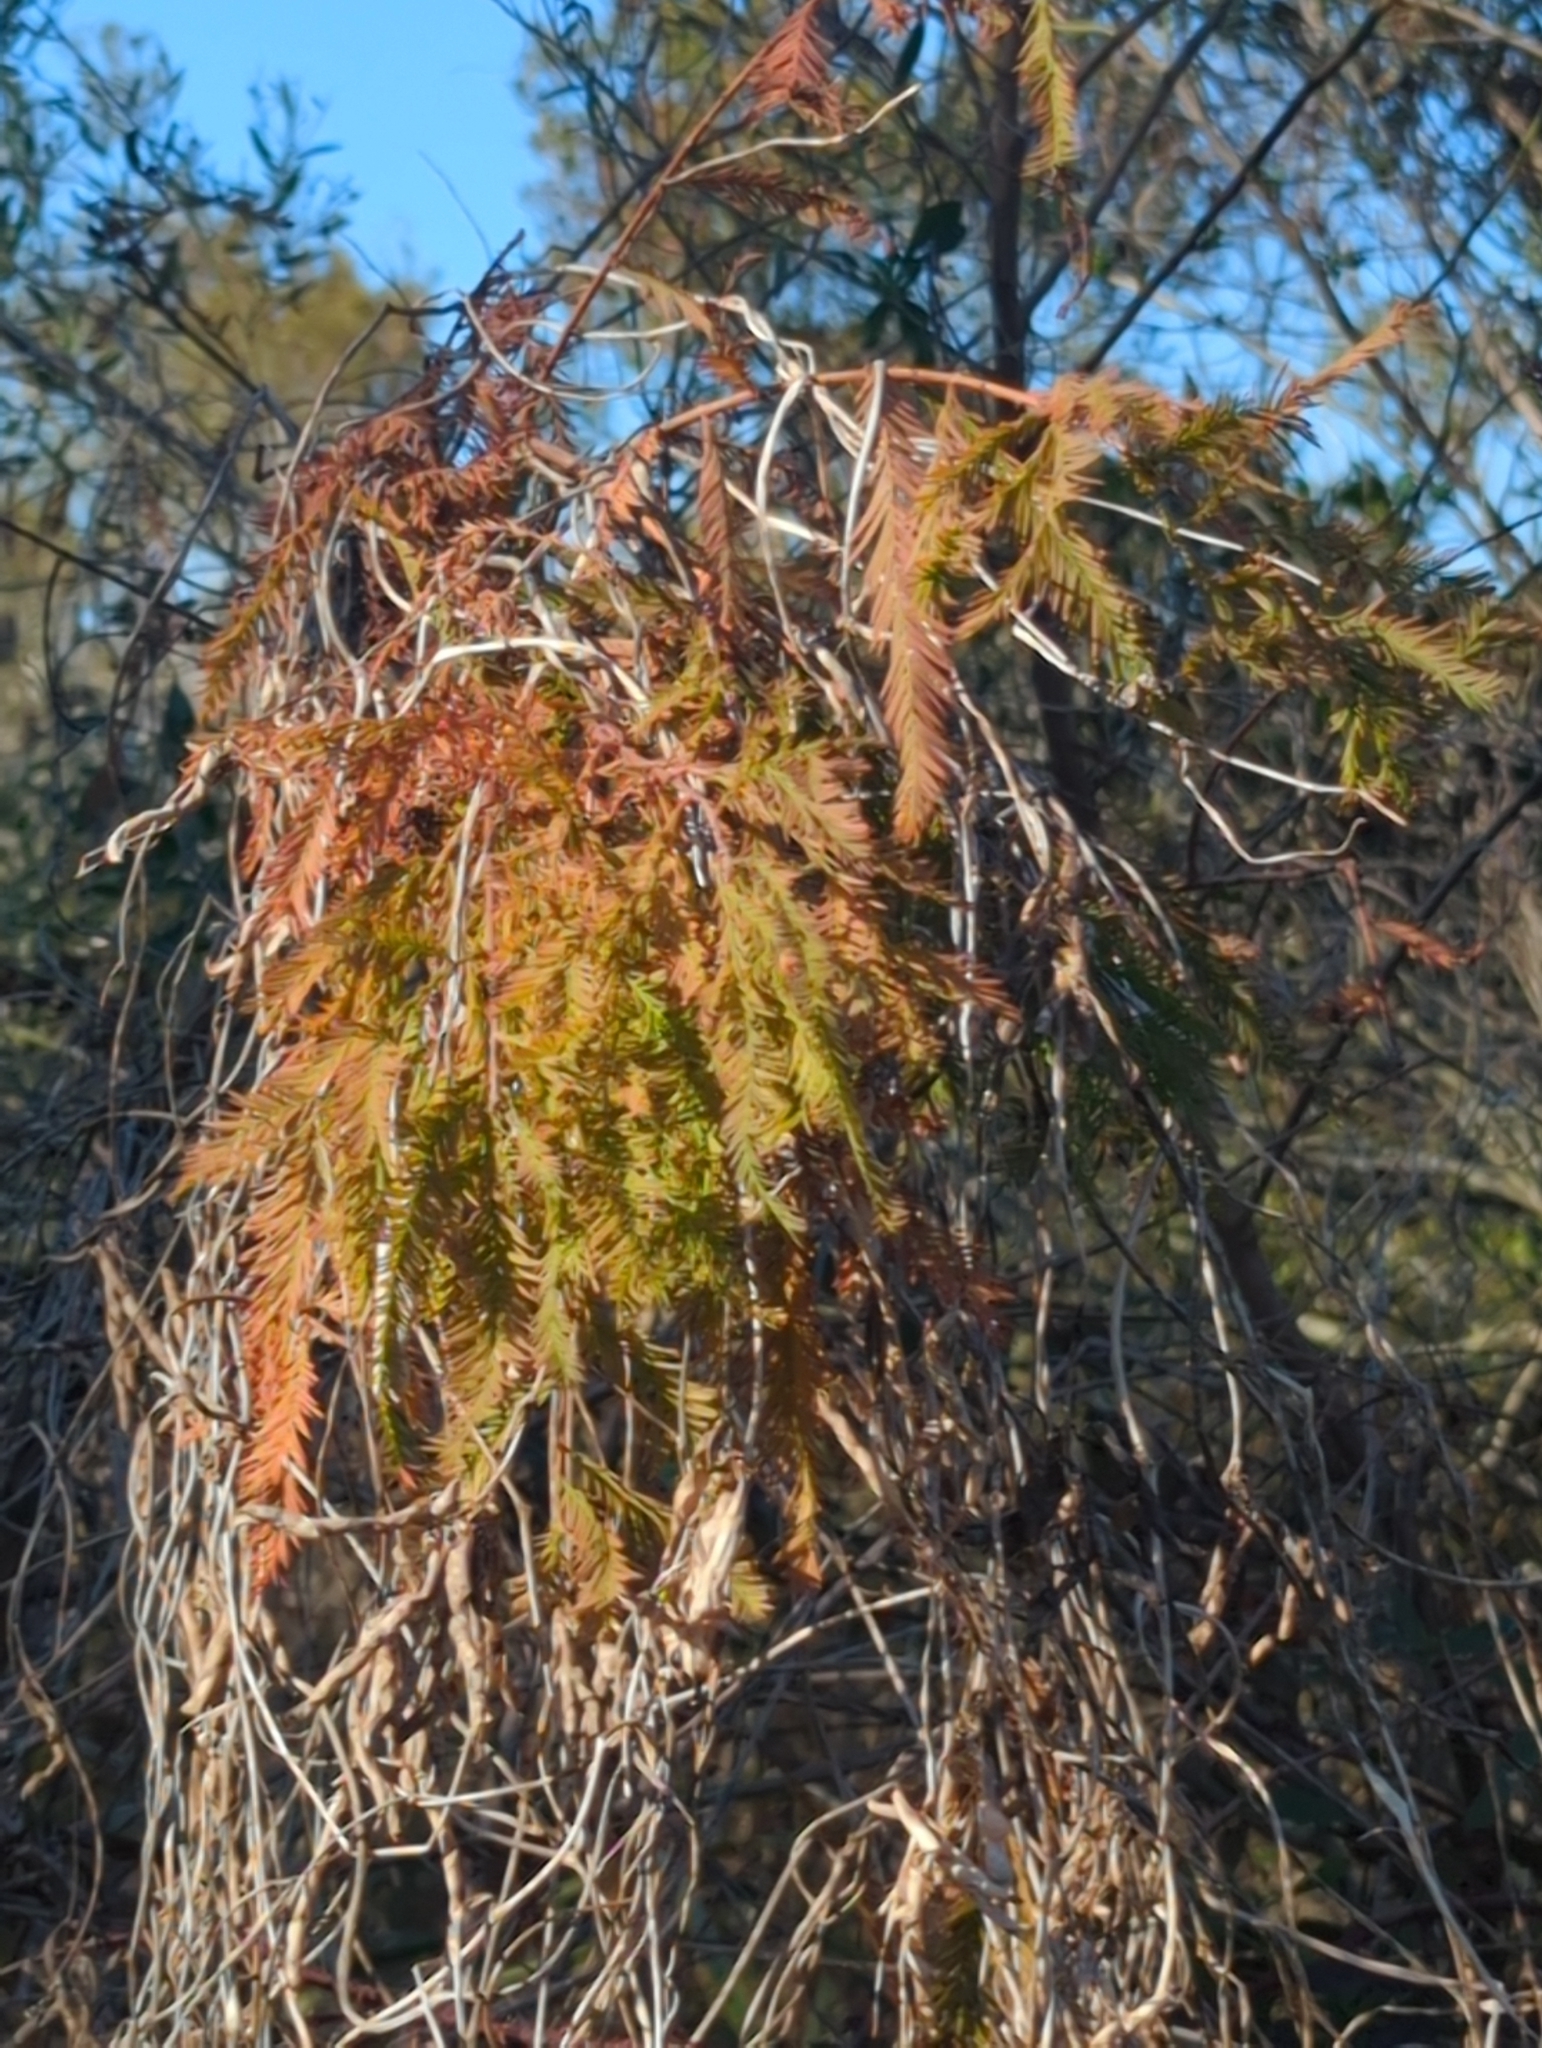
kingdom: Plantae
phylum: Tracheophyta
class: Pinopsida
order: Pinales
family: Cupressaceae
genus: Taxodium
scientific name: Taxodium distichum
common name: Bald cypress
